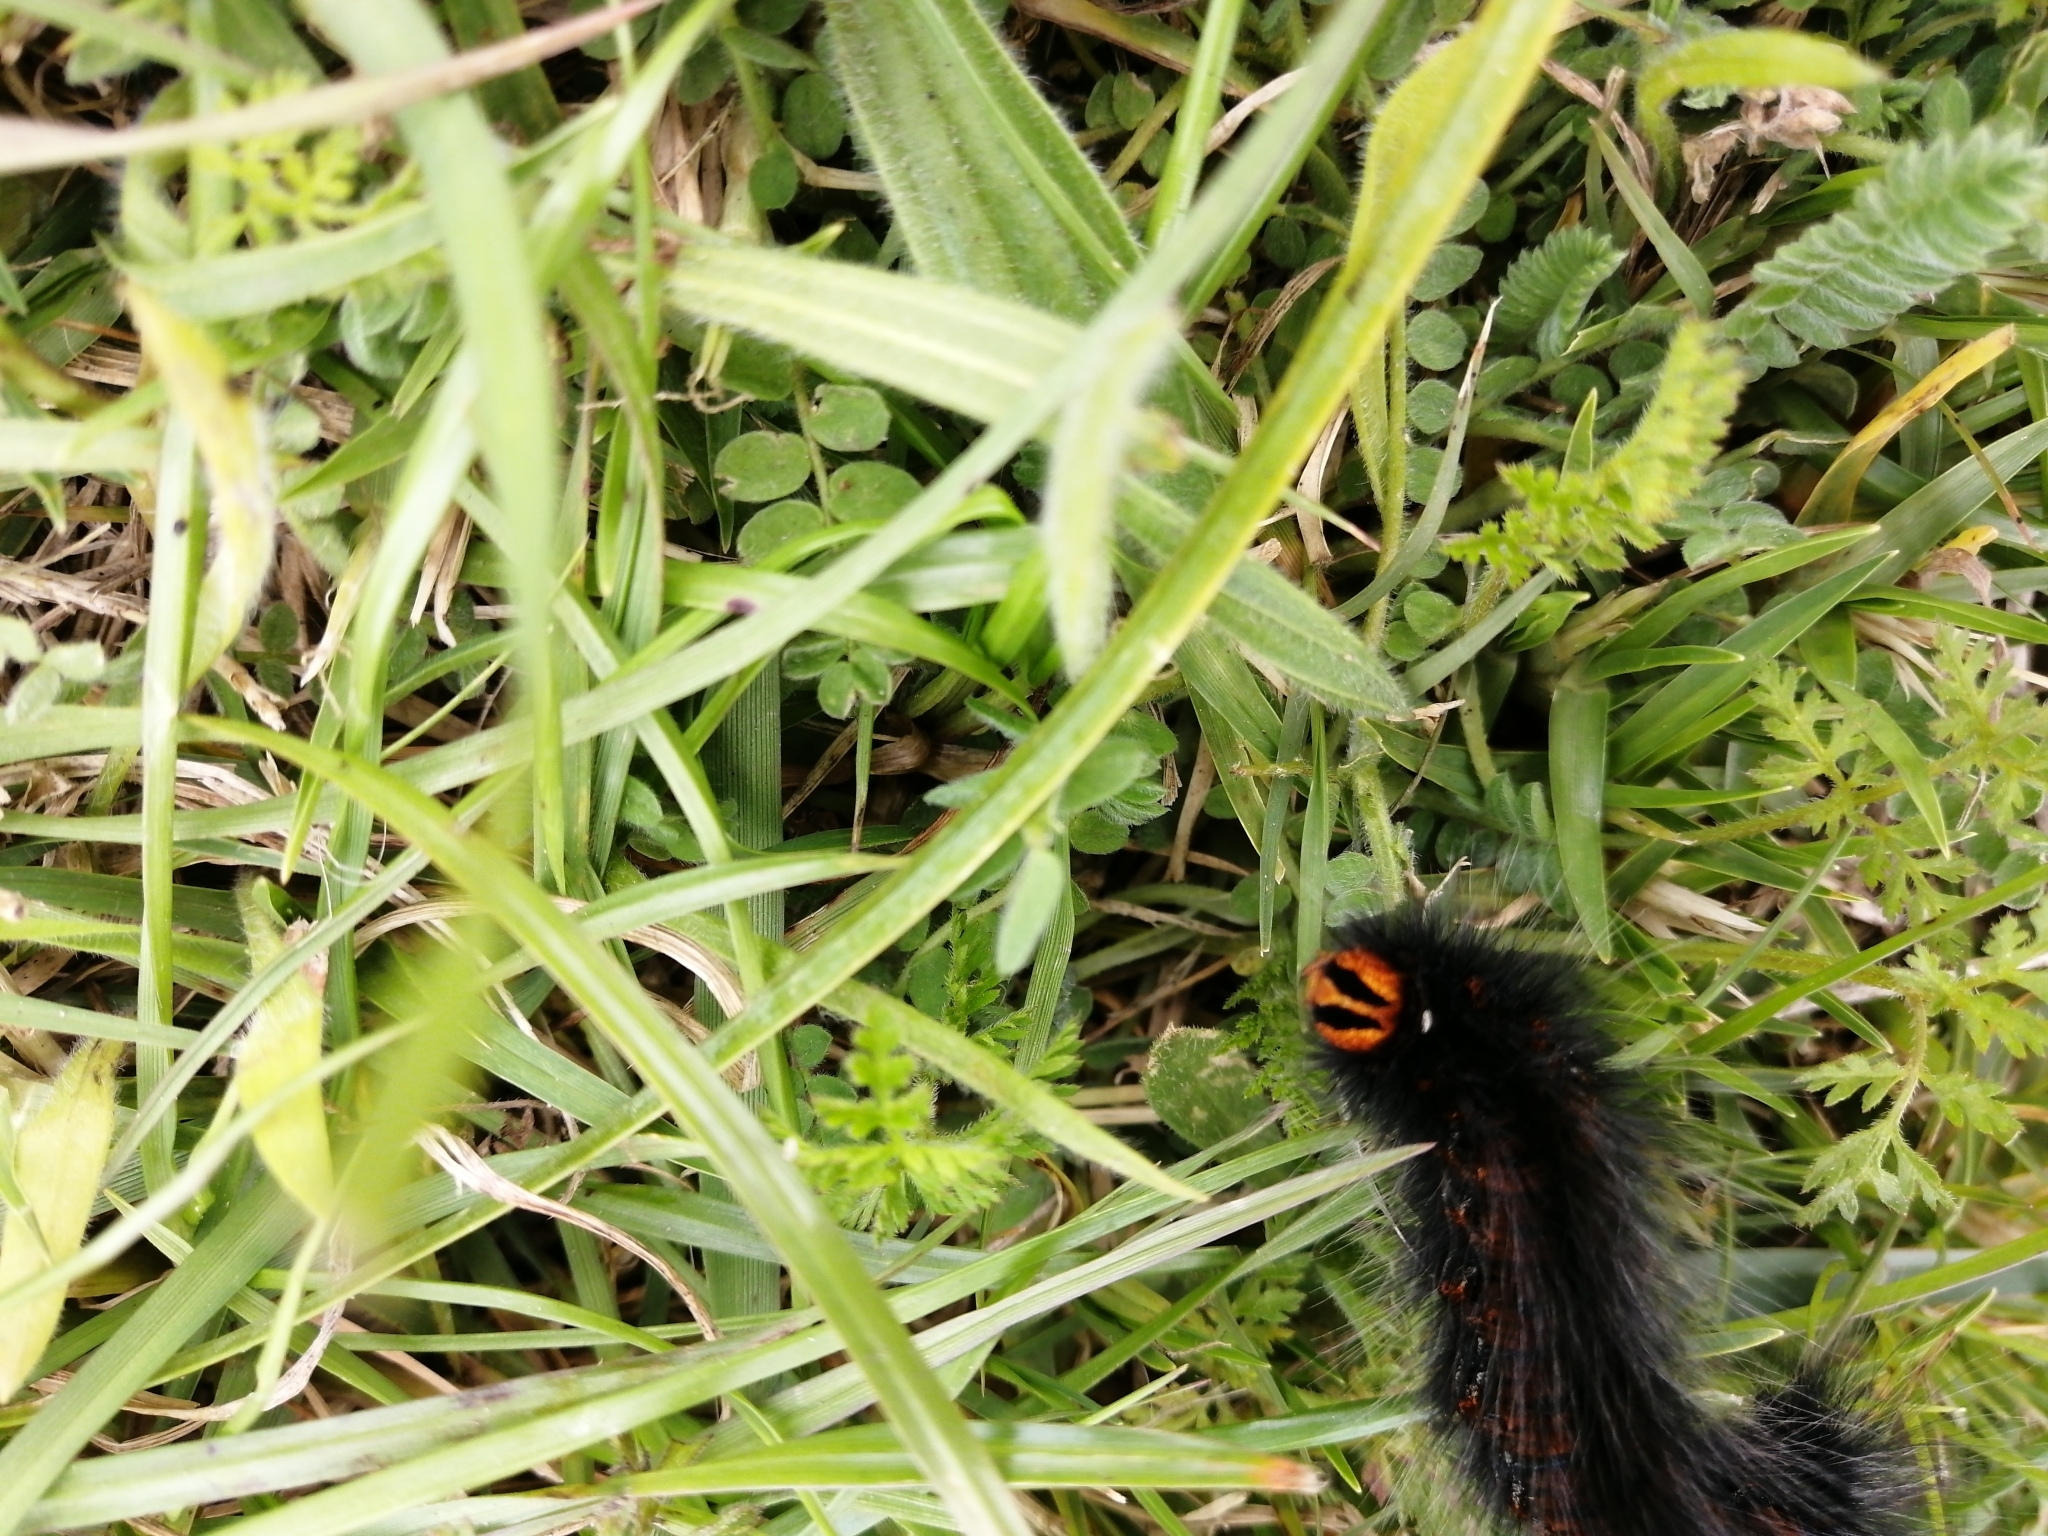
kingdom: Animalia
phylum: Arthropoda
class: Insecta
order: Lepidoptera
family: Lasiocampidae
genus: Mesocelis
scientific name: Mesocelis monticola
